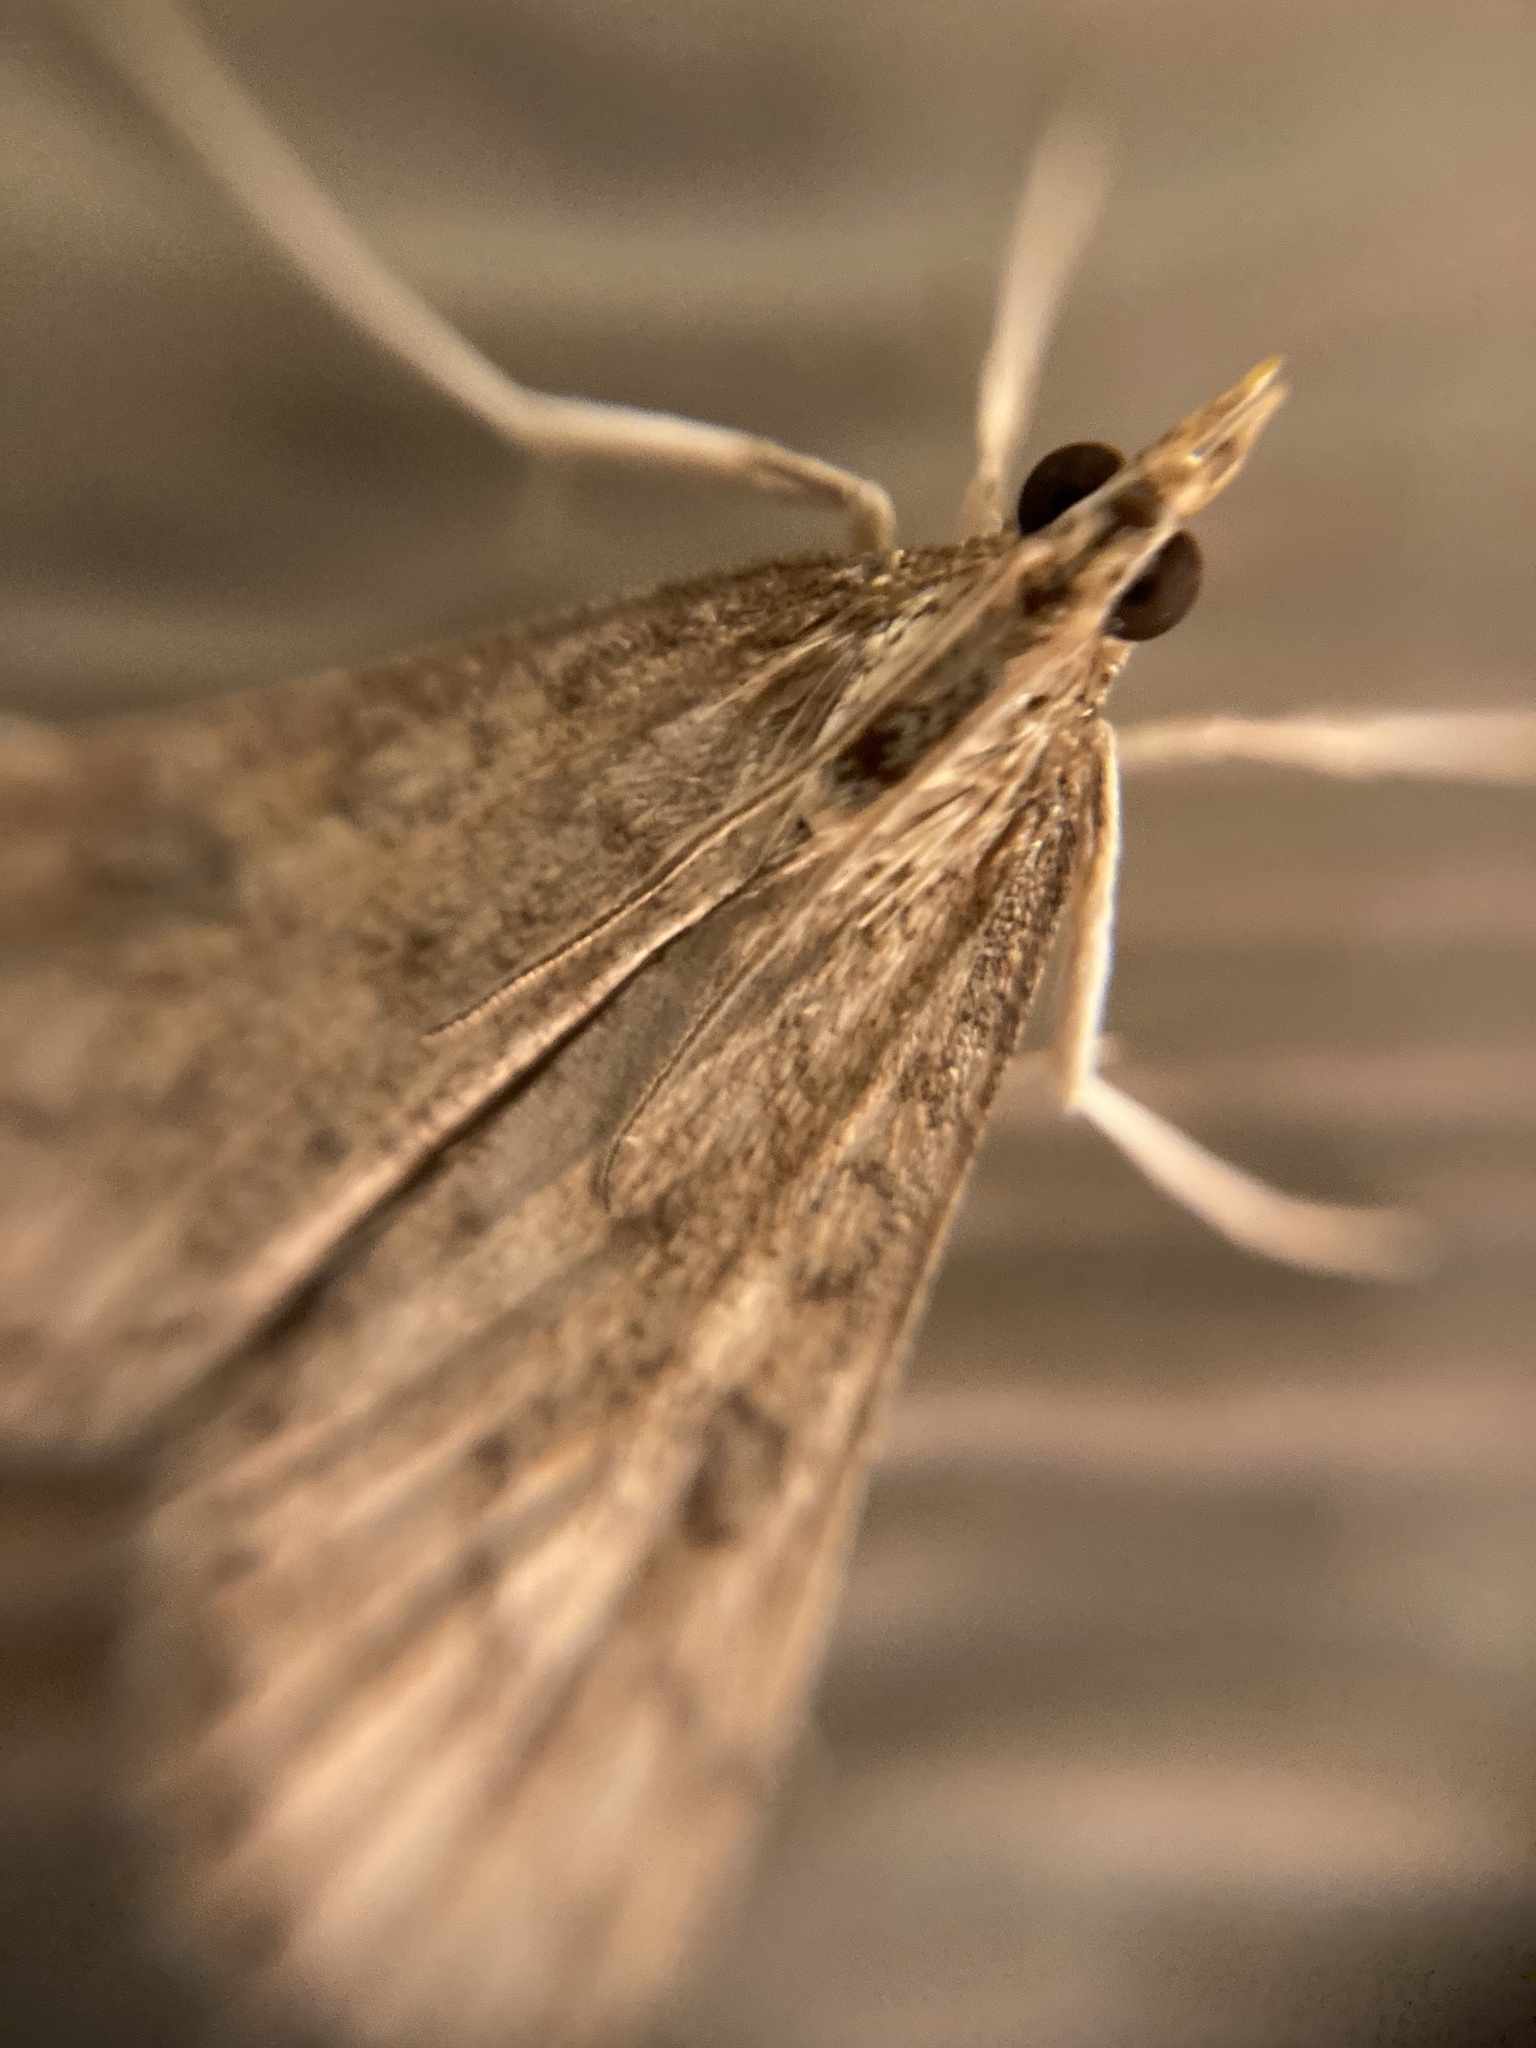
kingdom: Animalia
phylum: Arthropoda
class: Insecta
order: Lepidoptera
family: Crambidae
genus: Udea
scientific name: Udea rubigalis
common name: Celery leaftier moth
